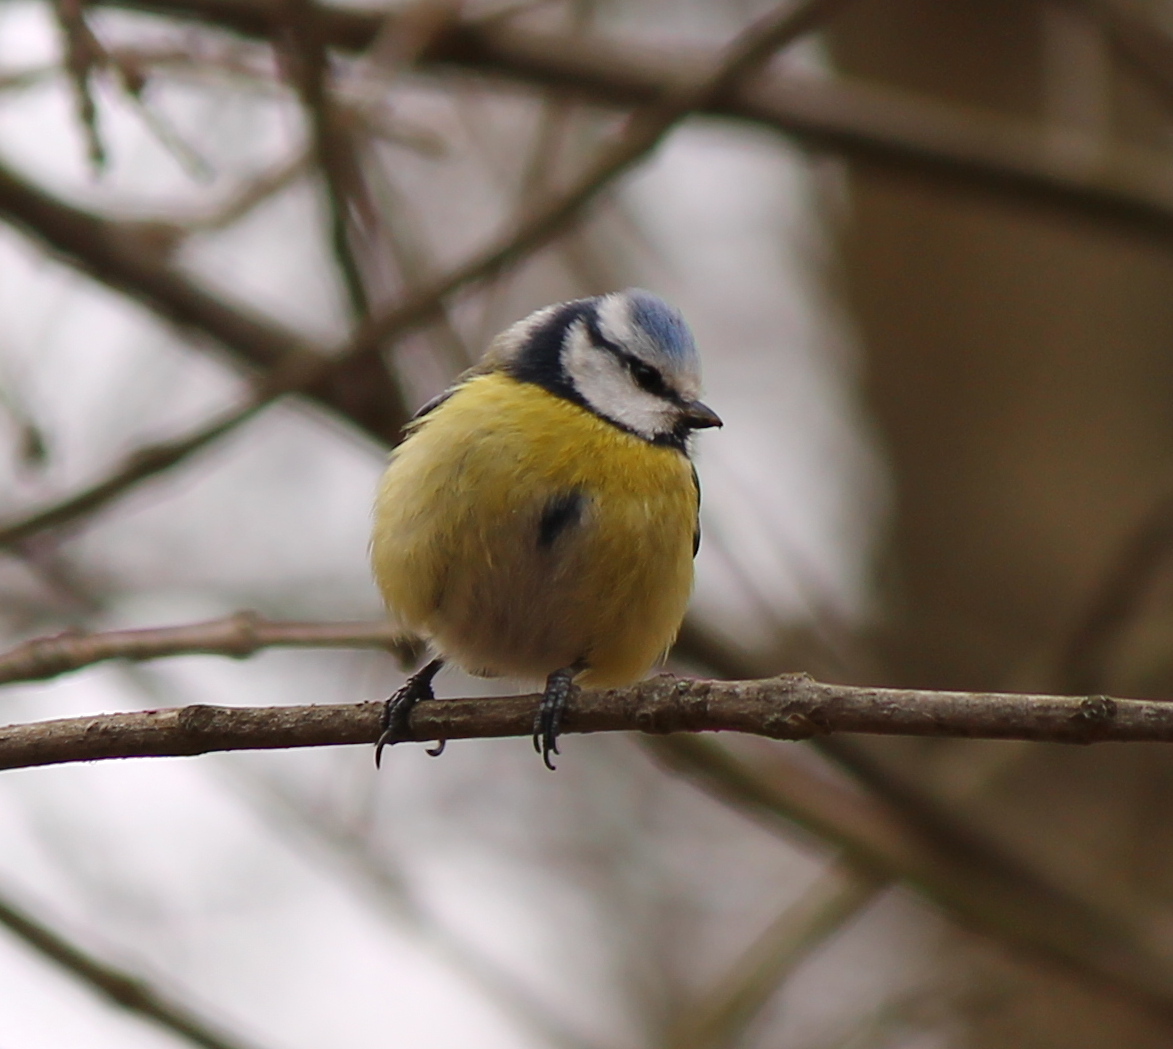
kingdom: Animalia
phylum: Chordata
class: Aves
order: Passeriformes
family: Paridae
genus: Cyanistes
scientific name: Cyanistes caeruleus
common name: Eurasian blue tit
